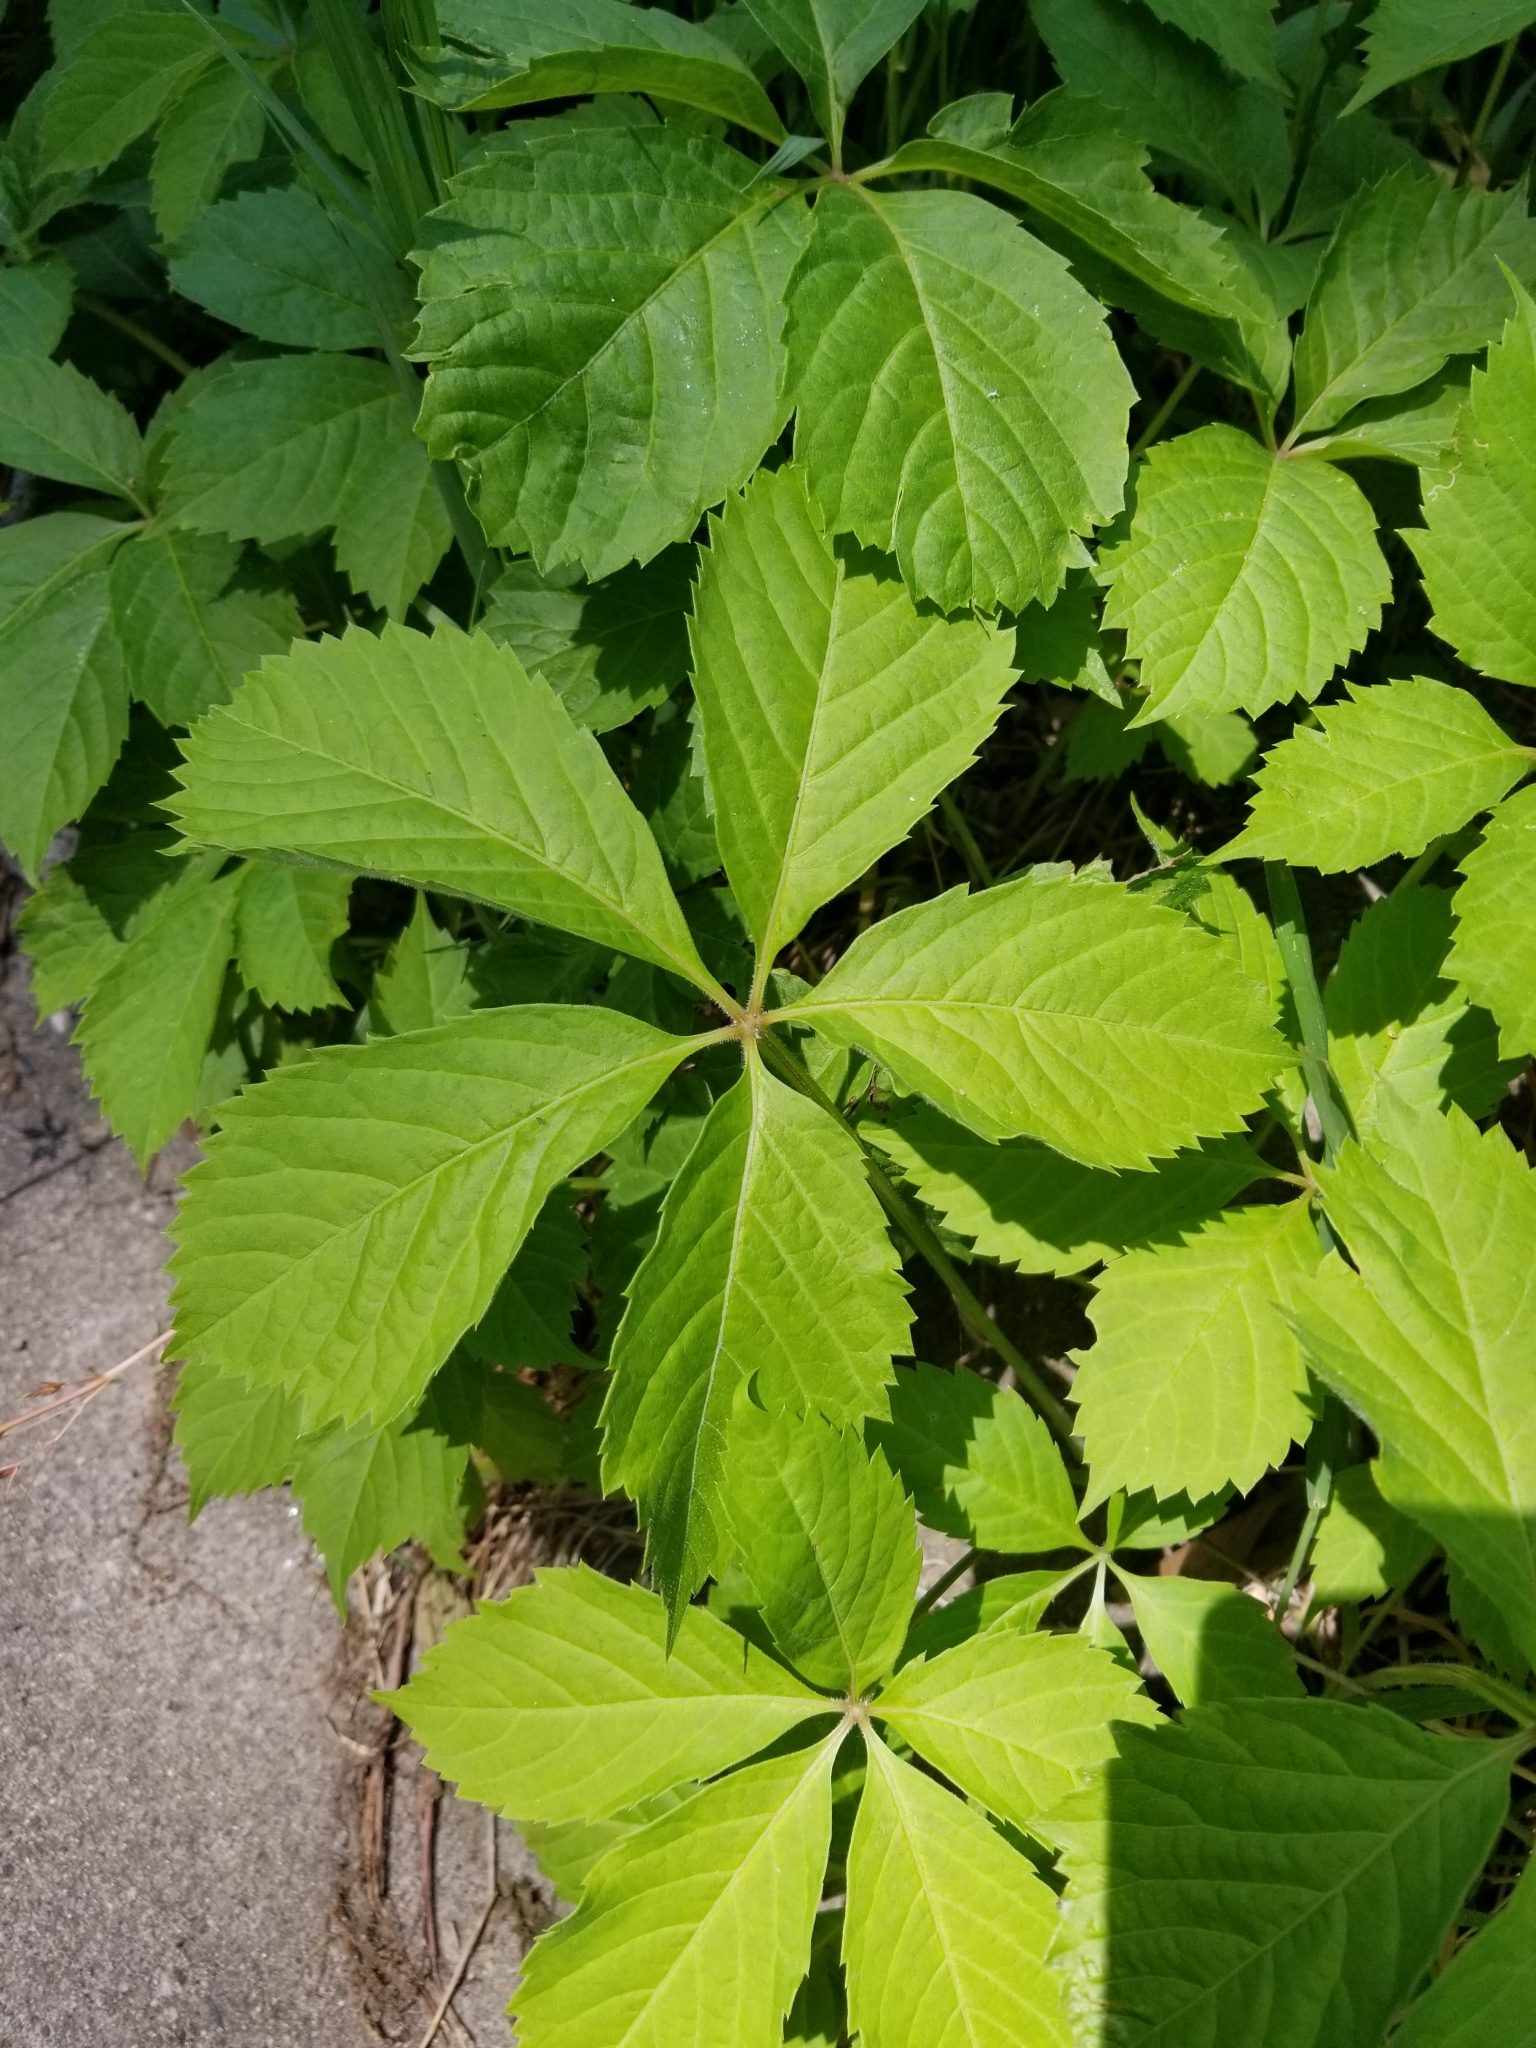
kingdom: Plantae
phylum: Tracheophyta
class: Magnoliopsida
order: Vitales
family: Vitaceae
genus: Parthenocissus
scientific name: Parthenocissus quinquefolia
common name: Virginia-creeper
